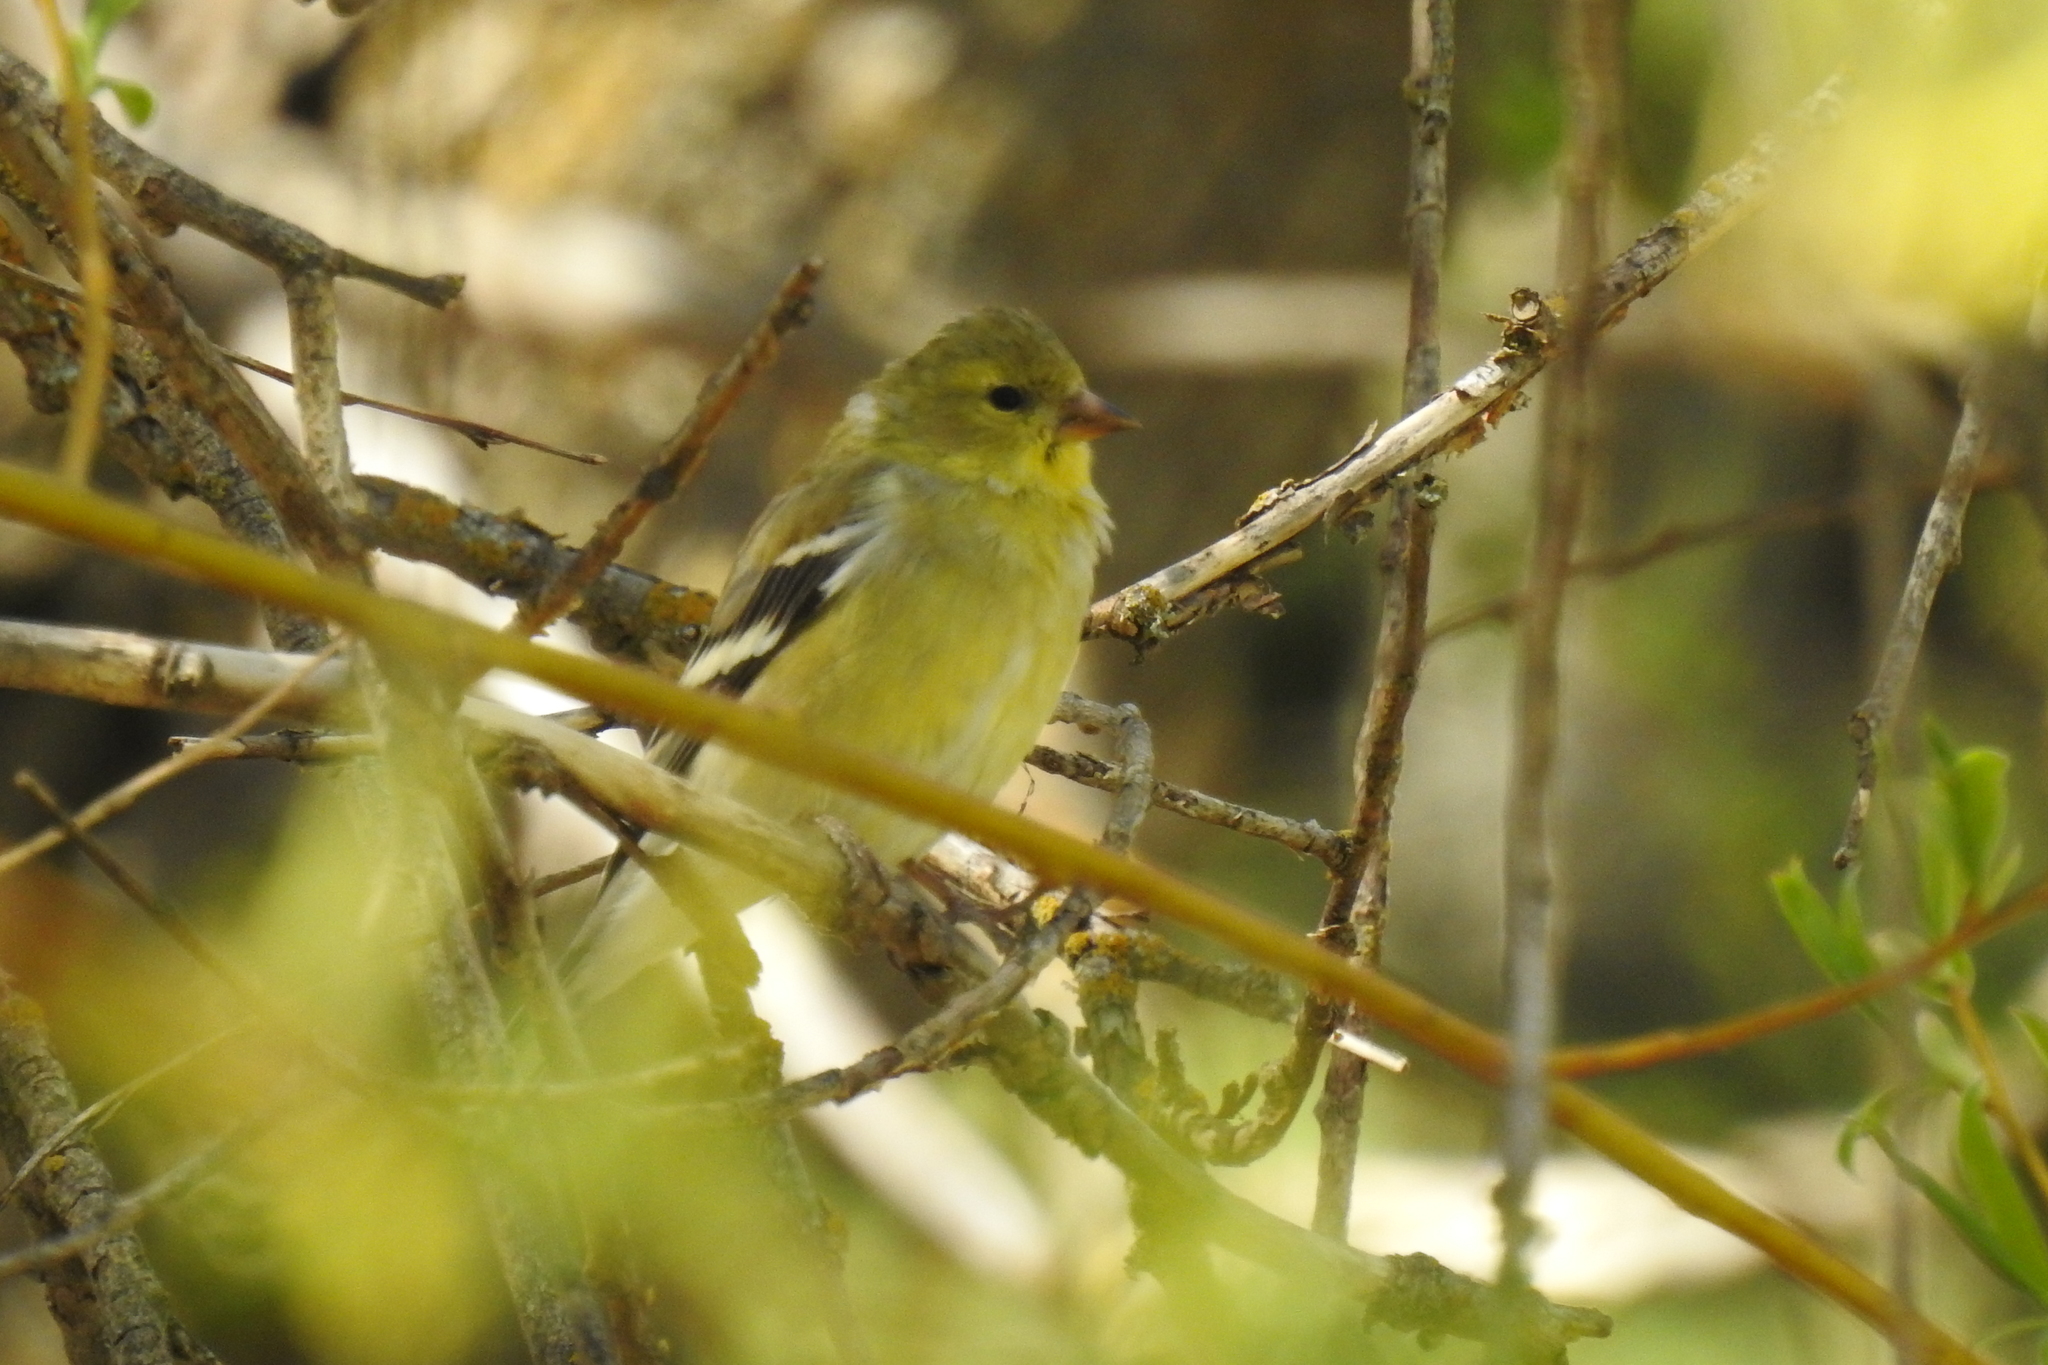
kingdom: Animalia
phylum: Chordata
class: Aves
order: Passeriformes
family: Fringillidae
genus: Spinus
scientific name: Spinus tristis
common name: American goldfinch
